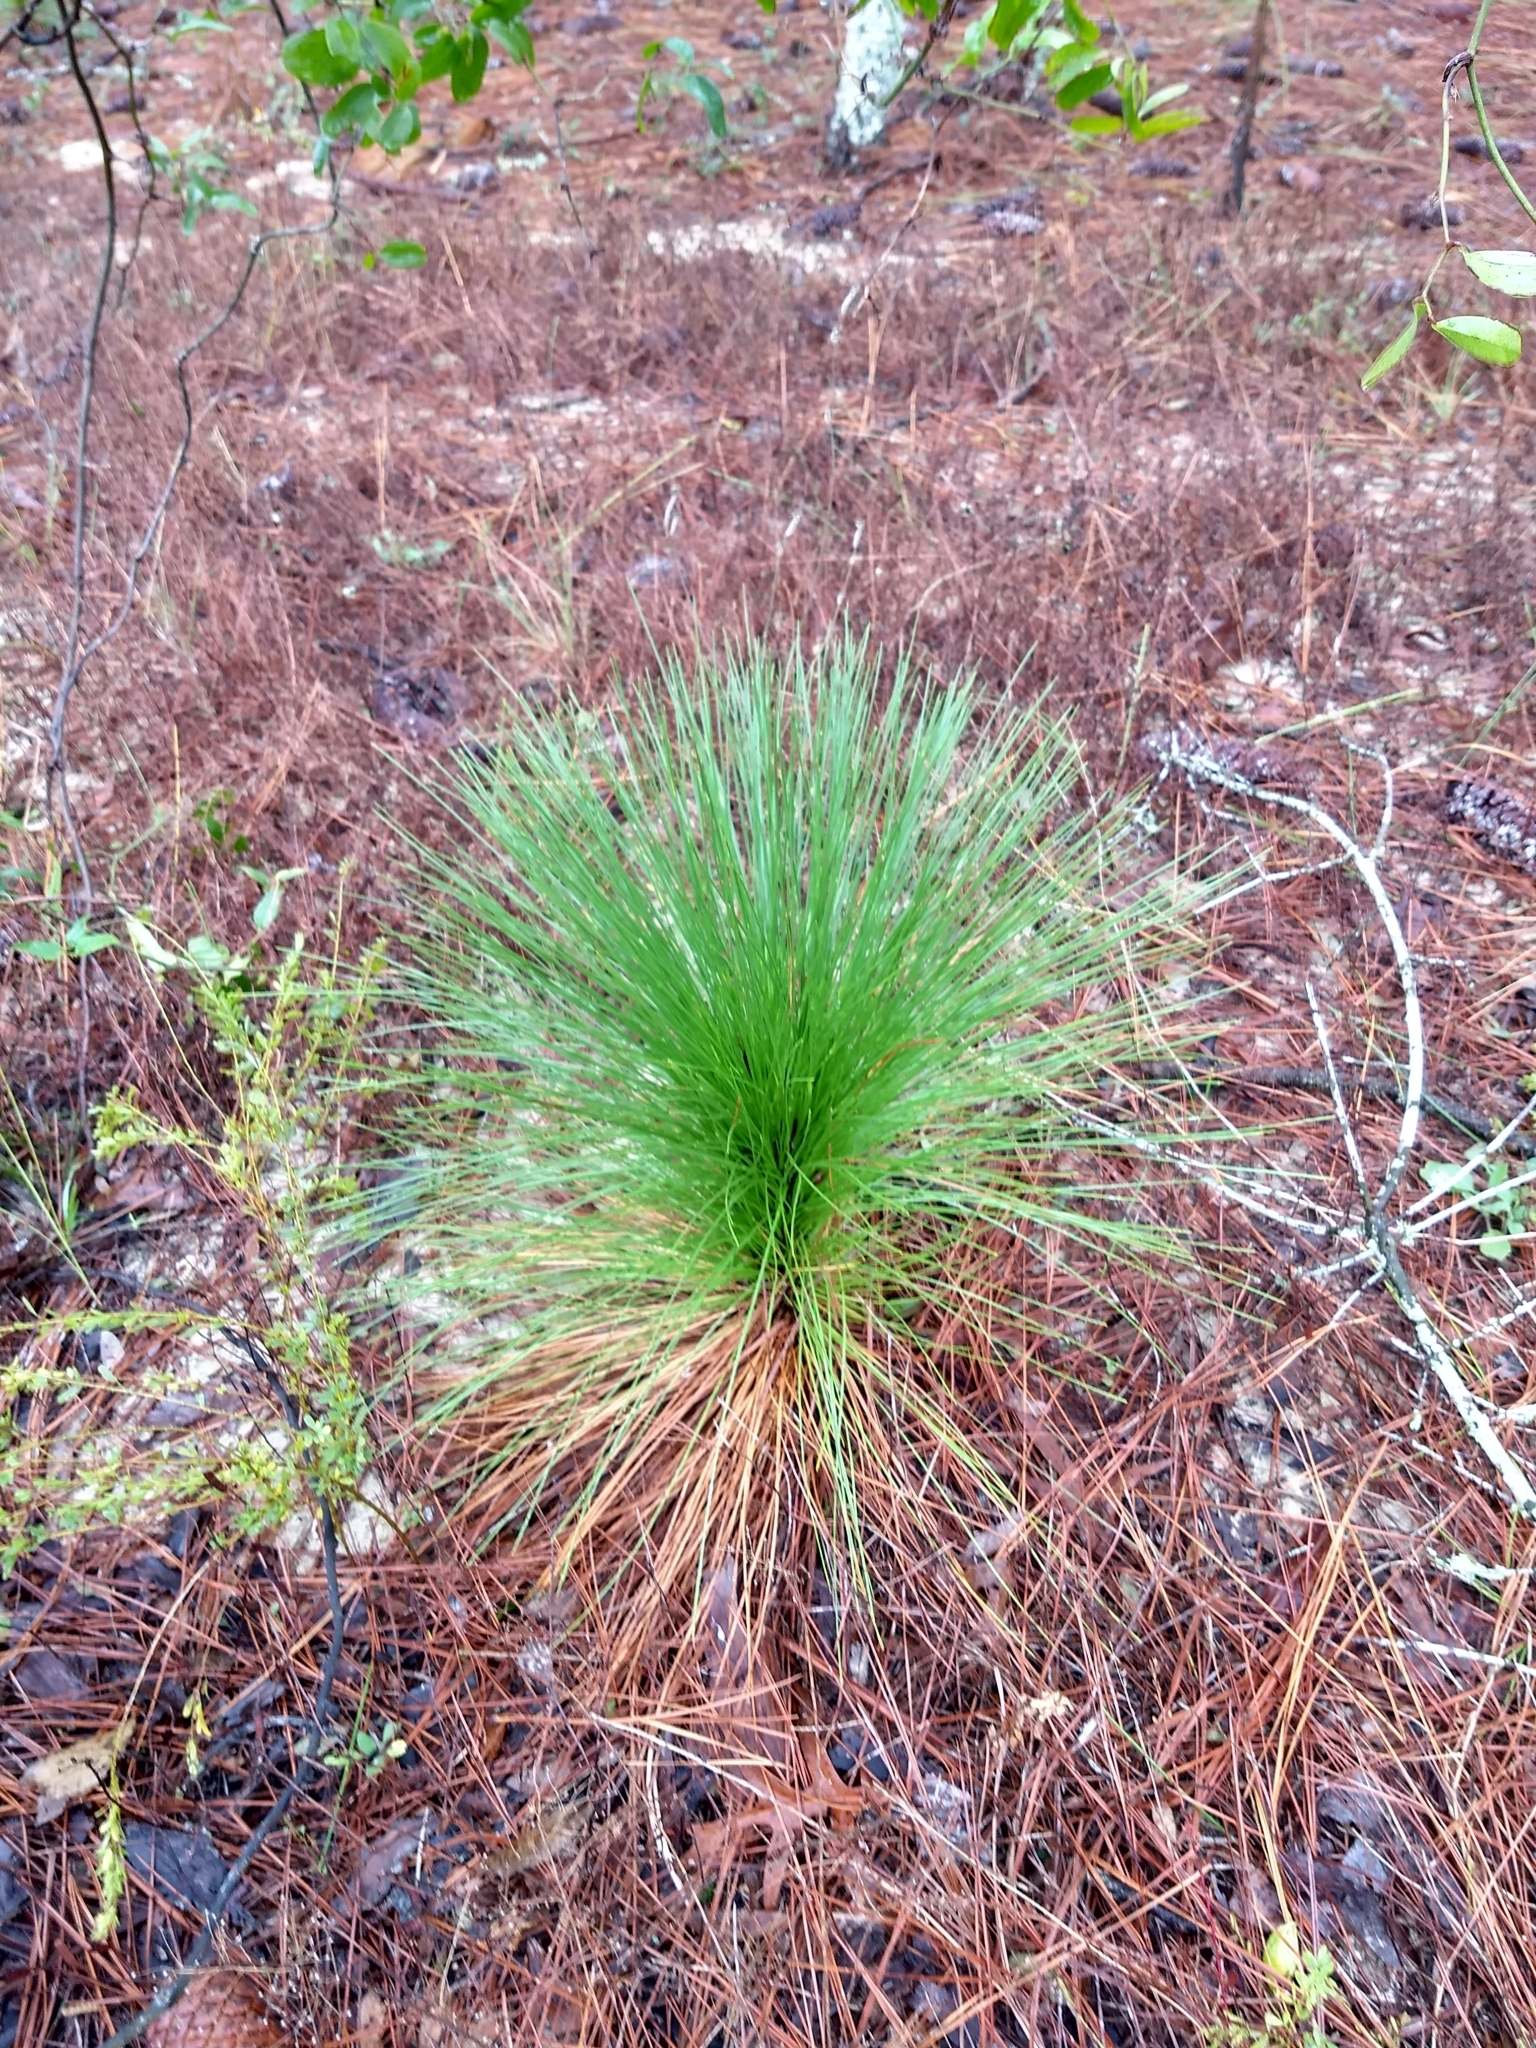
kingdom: Plantae
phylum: Tracheophyta
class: Pinopsida
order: Pinales
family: Pinaceae
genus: Pinus
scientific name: Pinus palustris
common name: Longleaf pine
